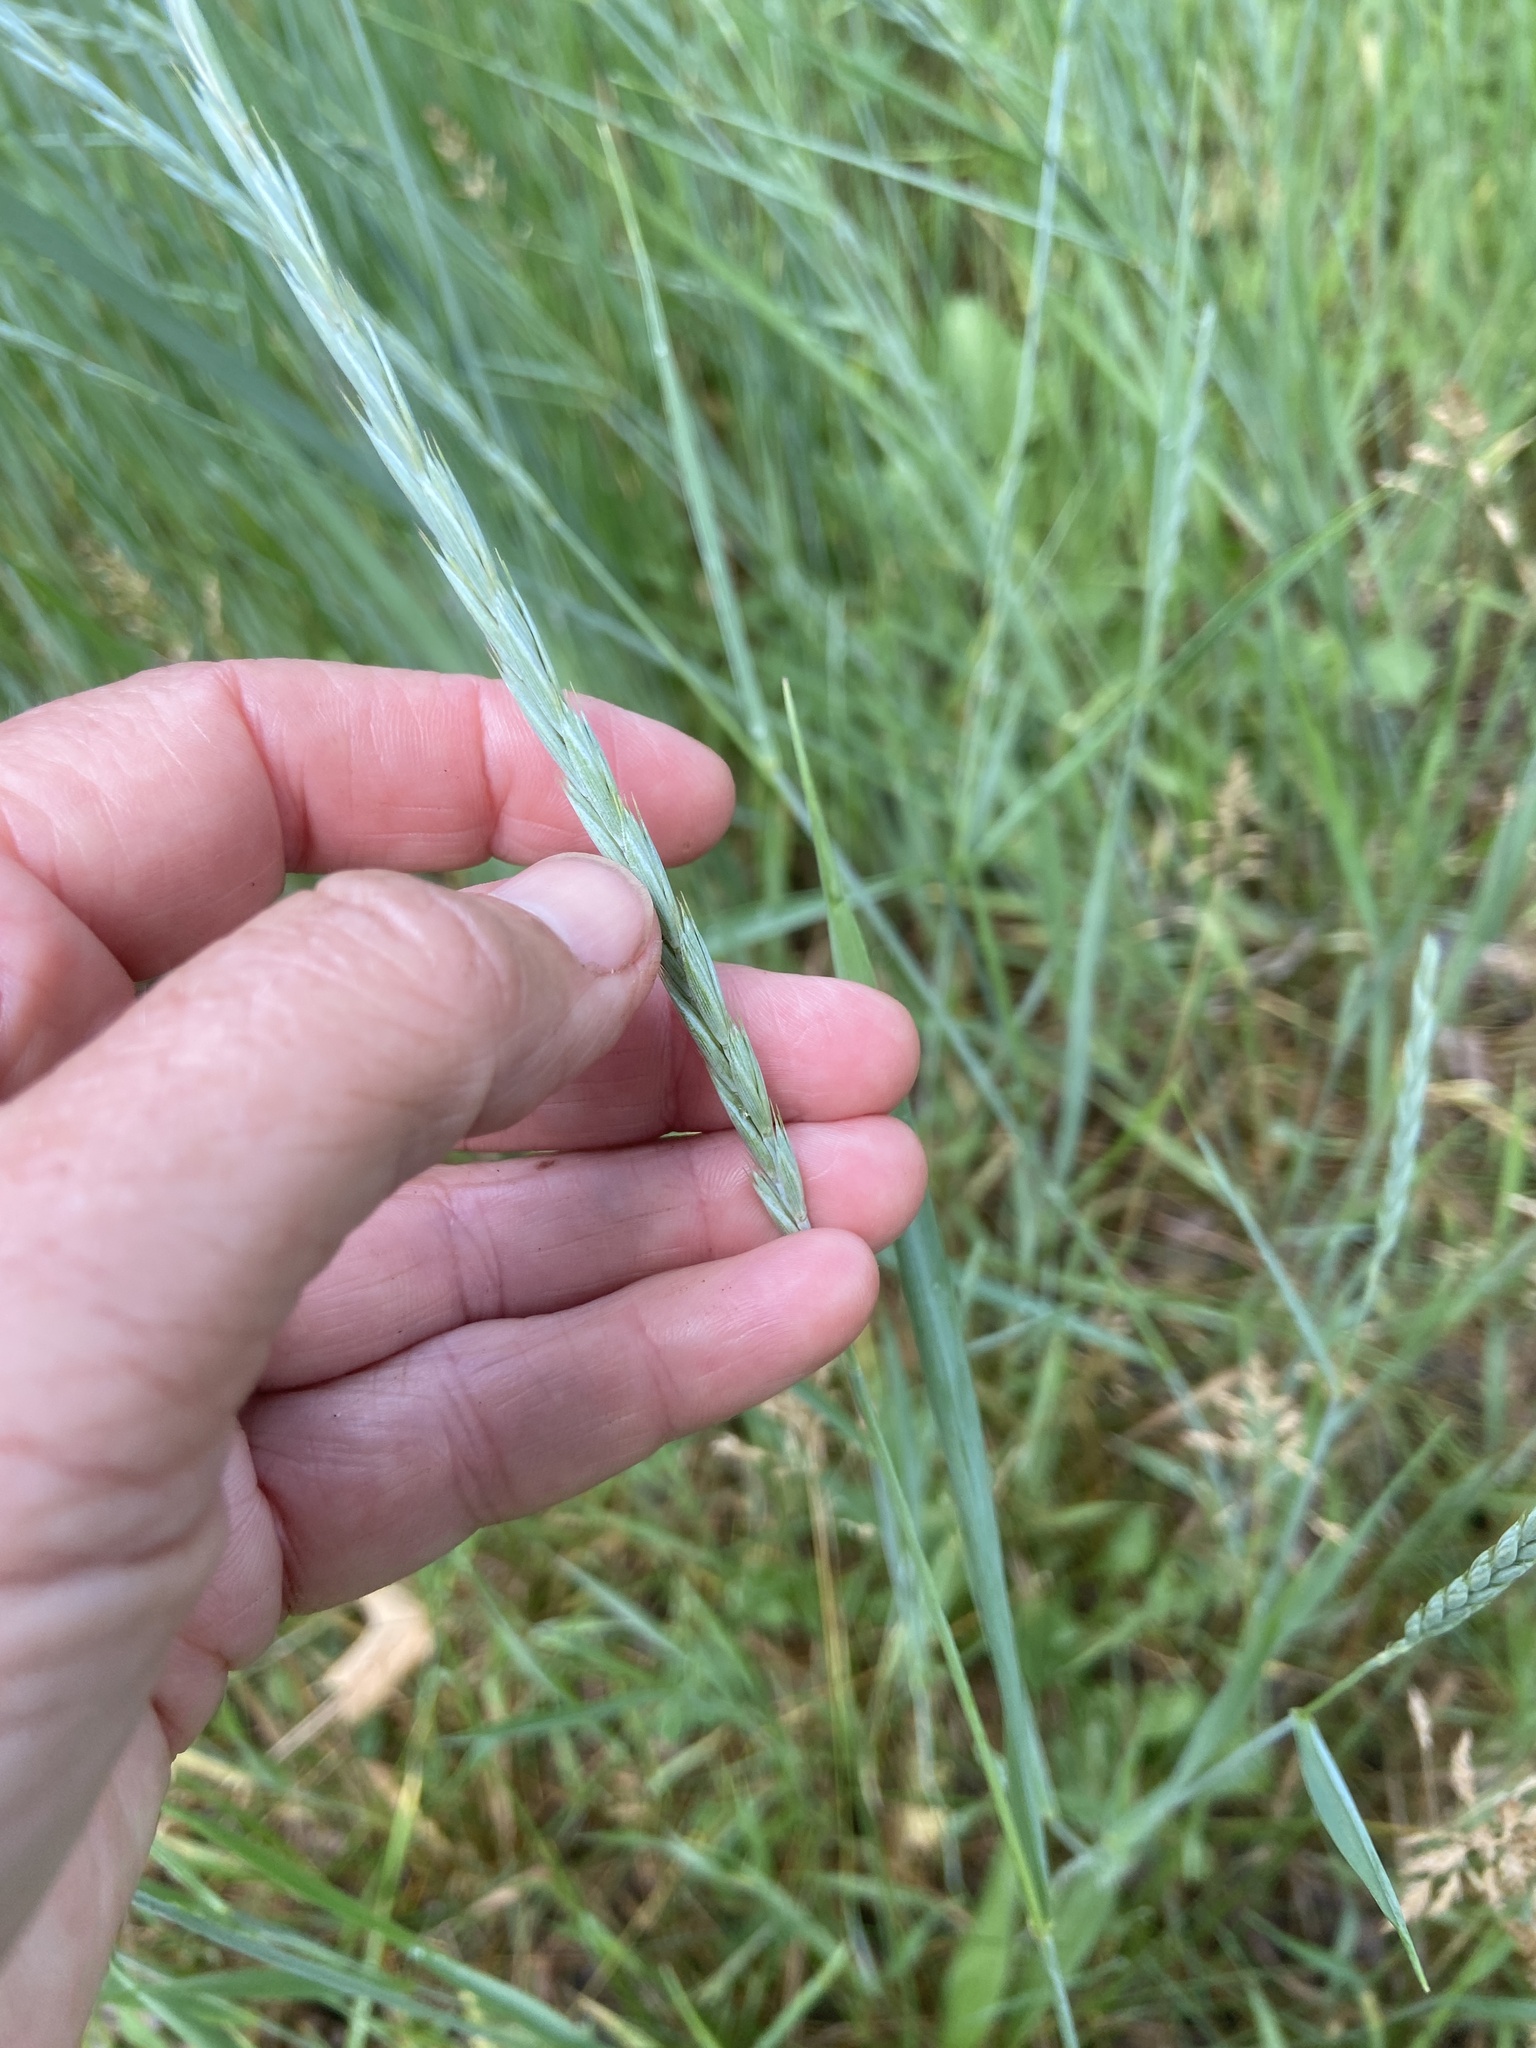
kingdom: Plantae
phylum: Tracheophyta
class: Liliopsida
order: Poales
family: Poaceae
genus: Elymus
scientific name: Elymus repens
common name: Quackgrass
